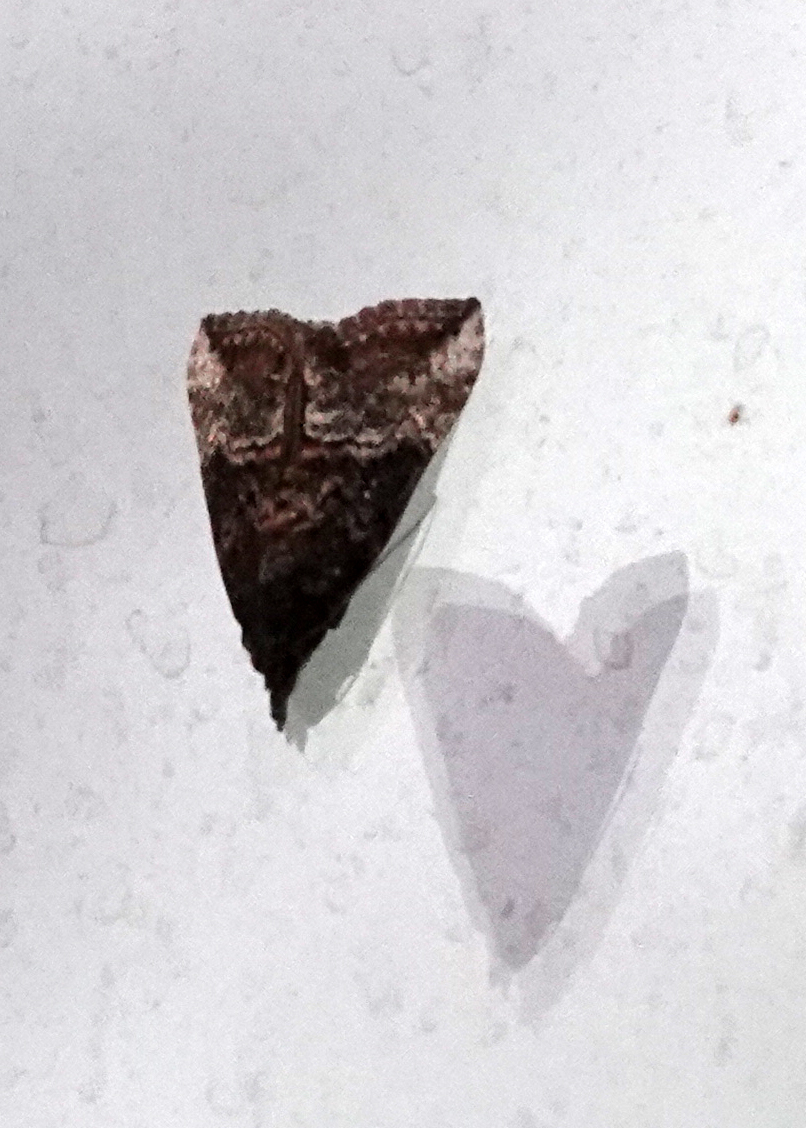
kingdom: Animalia
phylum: Arthropoda
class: Insecta
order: Lepidoptera
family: Erebidae
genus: Hypena
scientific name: Hypena scabra
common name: Green cloverworm
